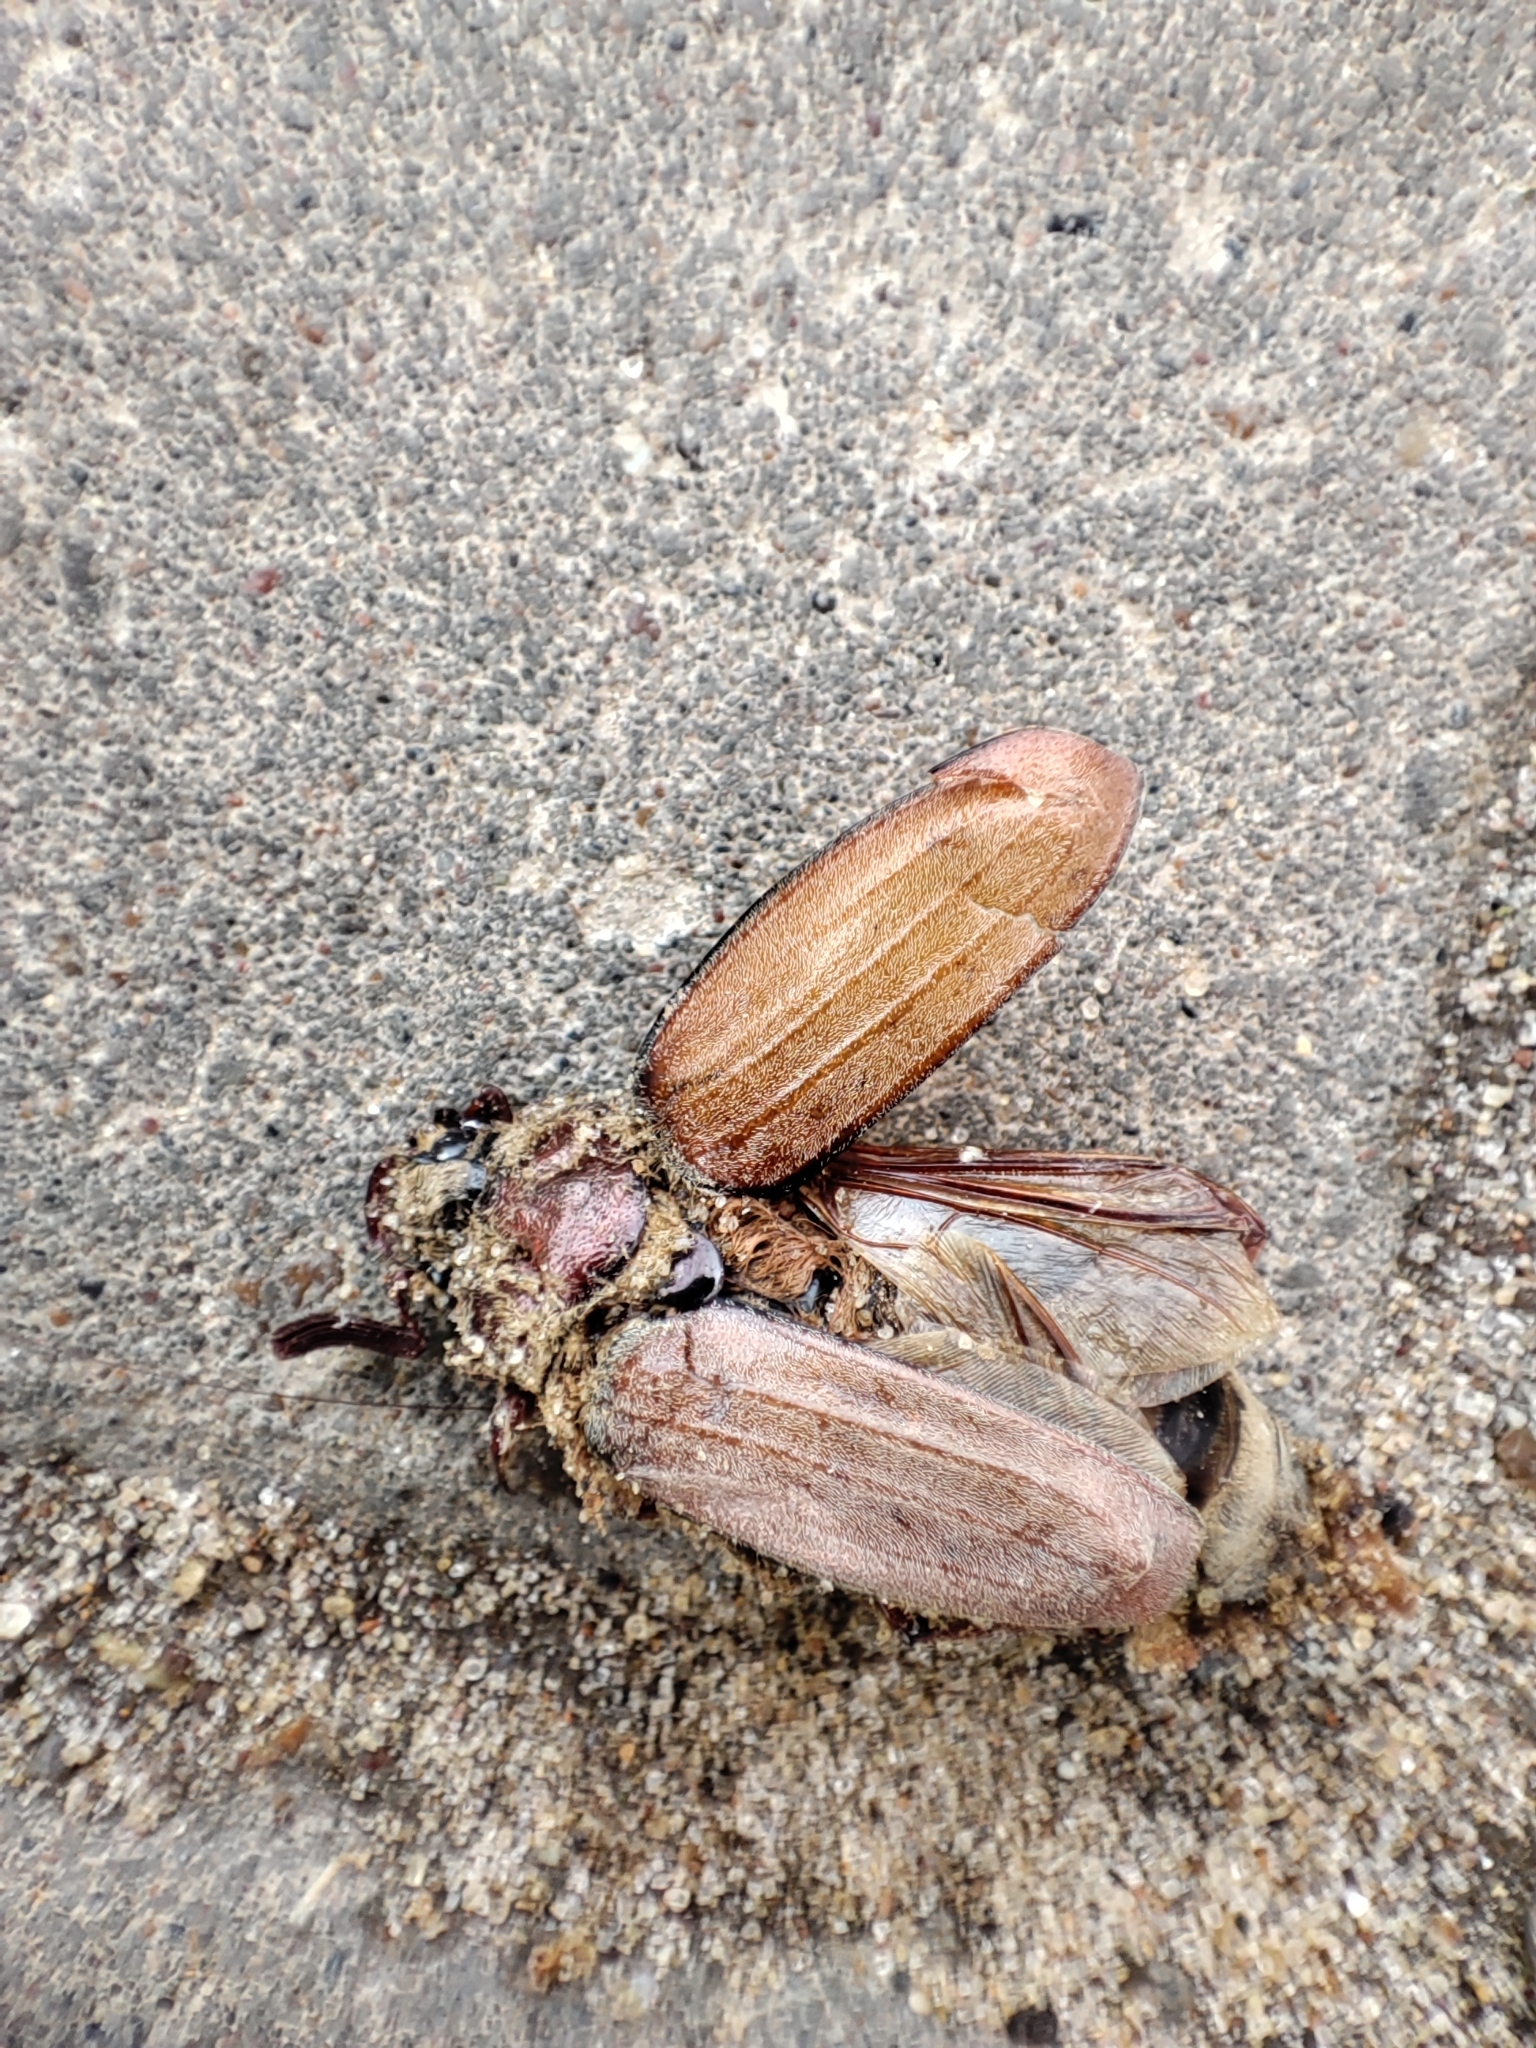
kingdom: Animalia
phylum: Arthropoda
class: Insecta
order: Coleoptera
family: Scarabaeidae
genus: Melolontha
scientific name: Melolontha hippocastani
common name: Chestnut cockchafer
